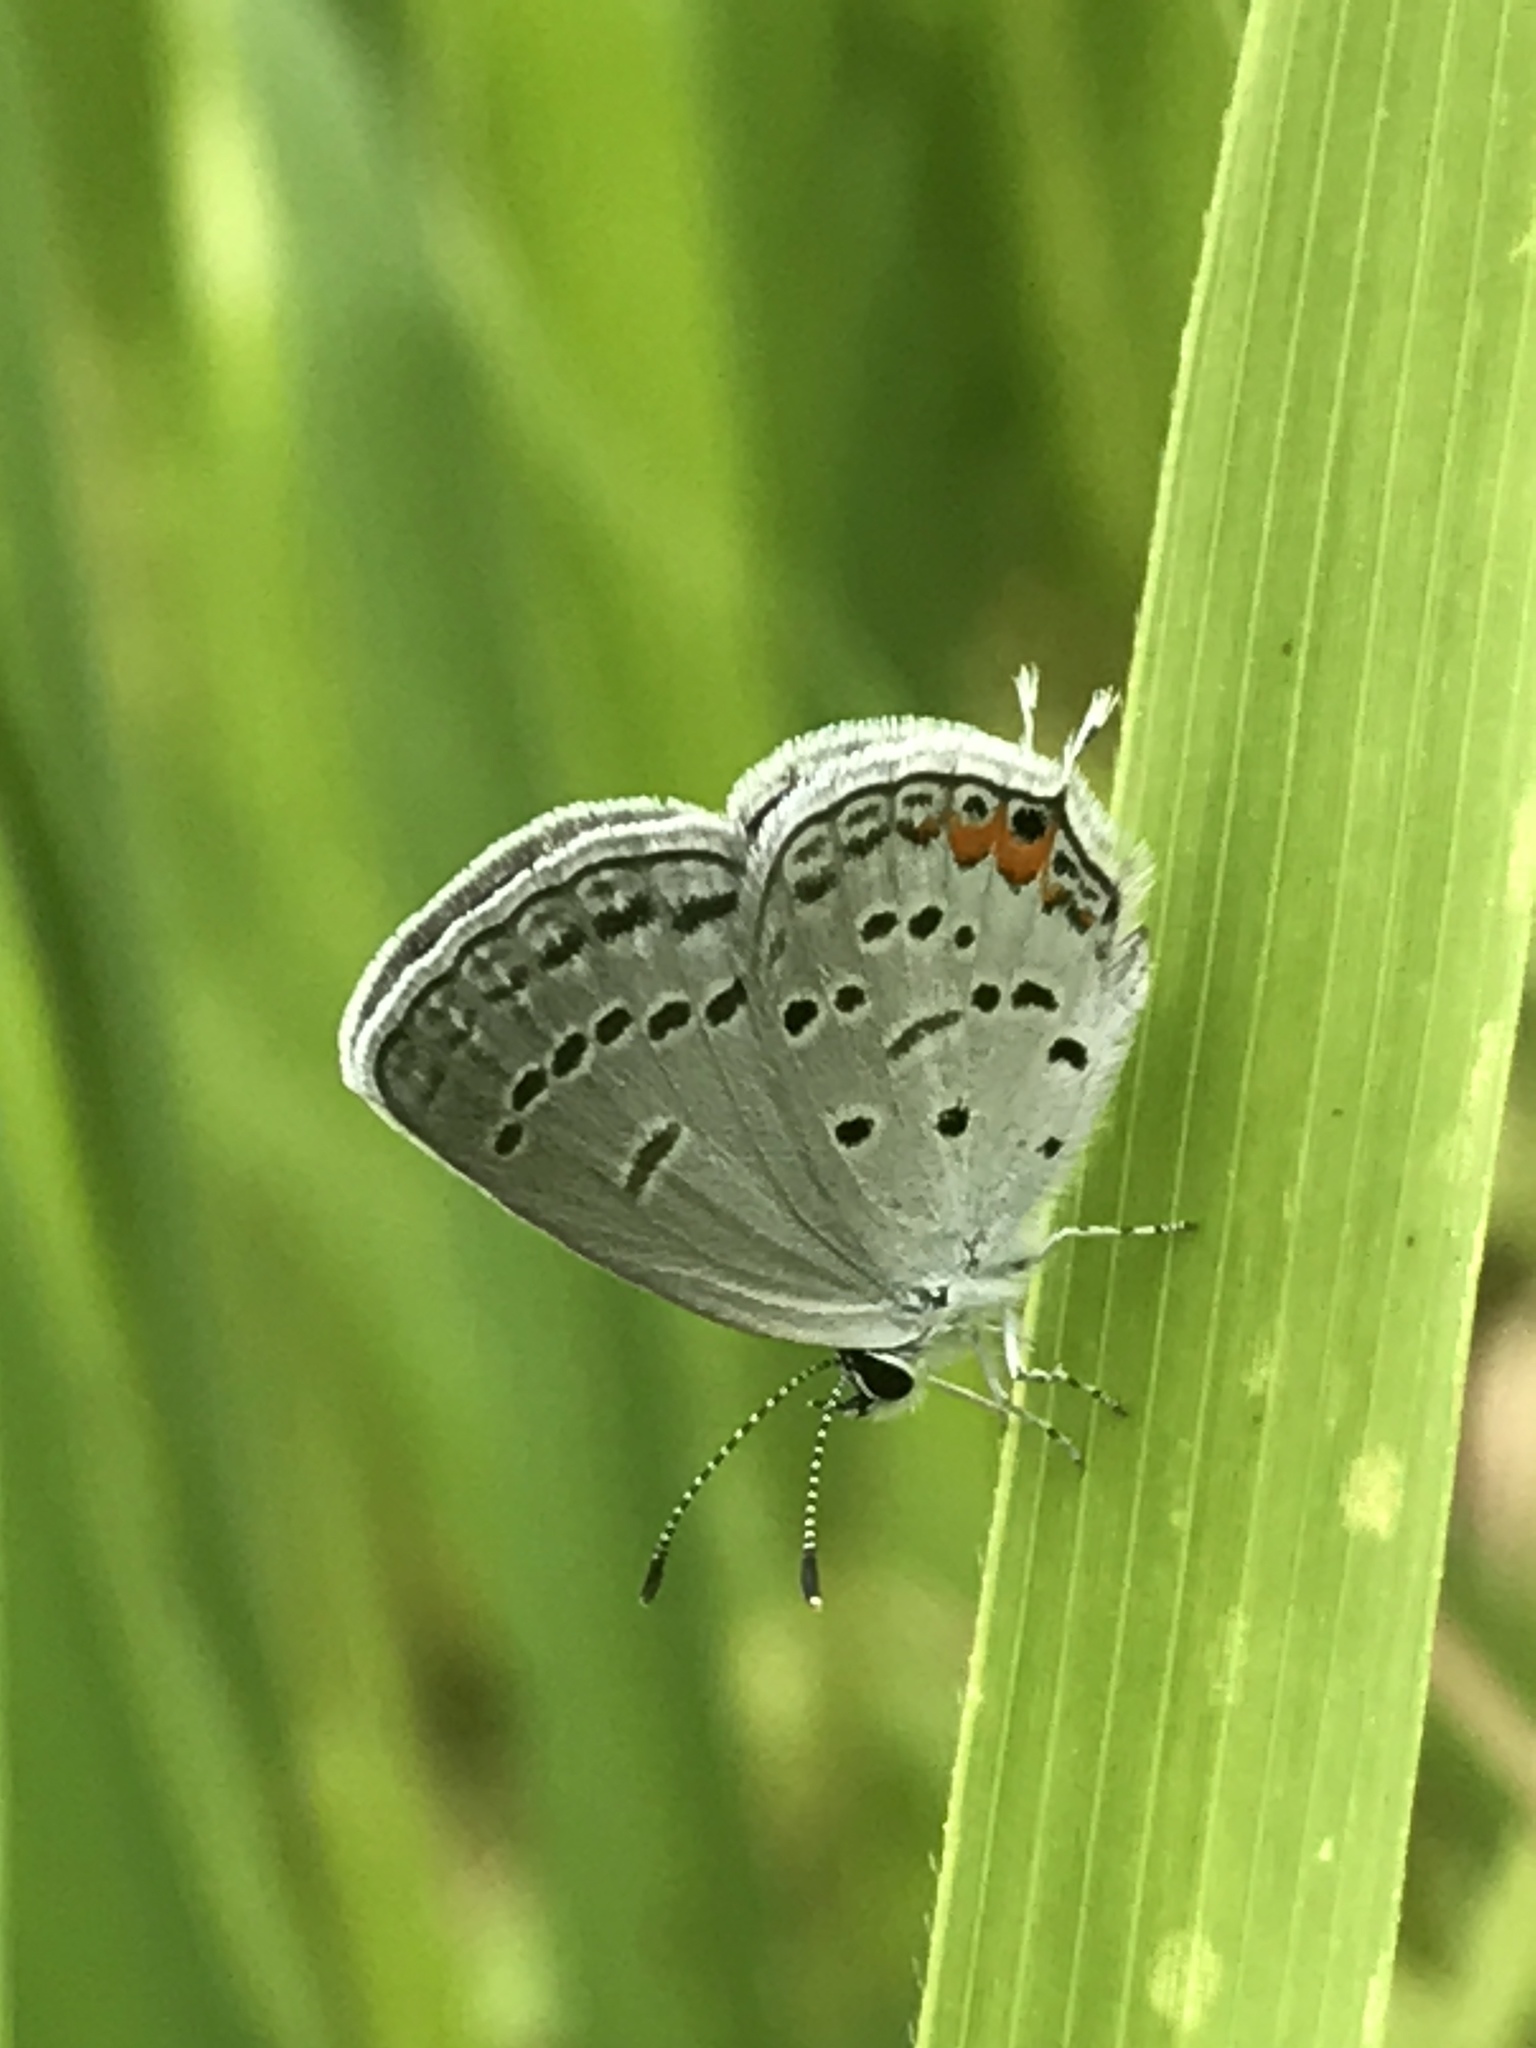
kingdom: Animalia
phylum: Arthropoda
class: Insecta
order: Lepidoptera
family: Lycaenidae
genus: Elkalyce
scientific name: Elkalyce comyntas
